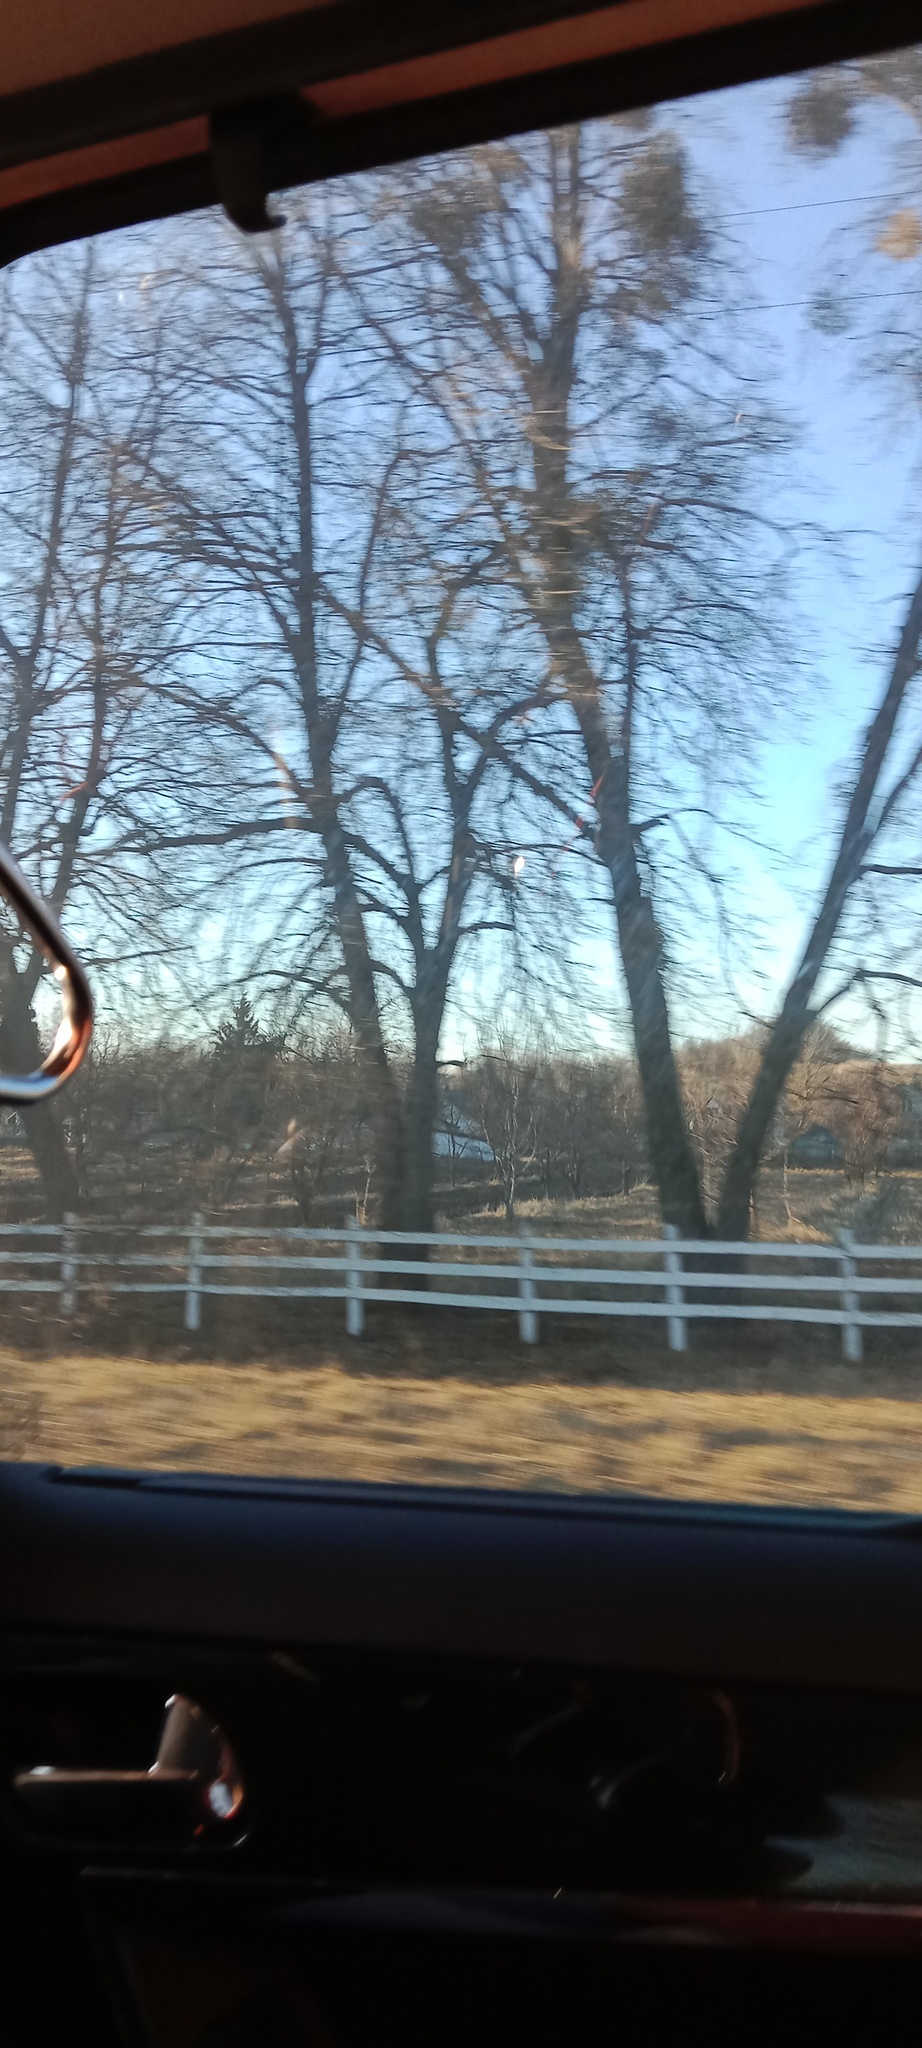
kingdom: Plantae
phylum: Tracheophyta
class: Magnoliopsida
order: Santalales
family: Viscaceae
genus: Viscum
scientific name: Viscum album
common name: Mistletoe
